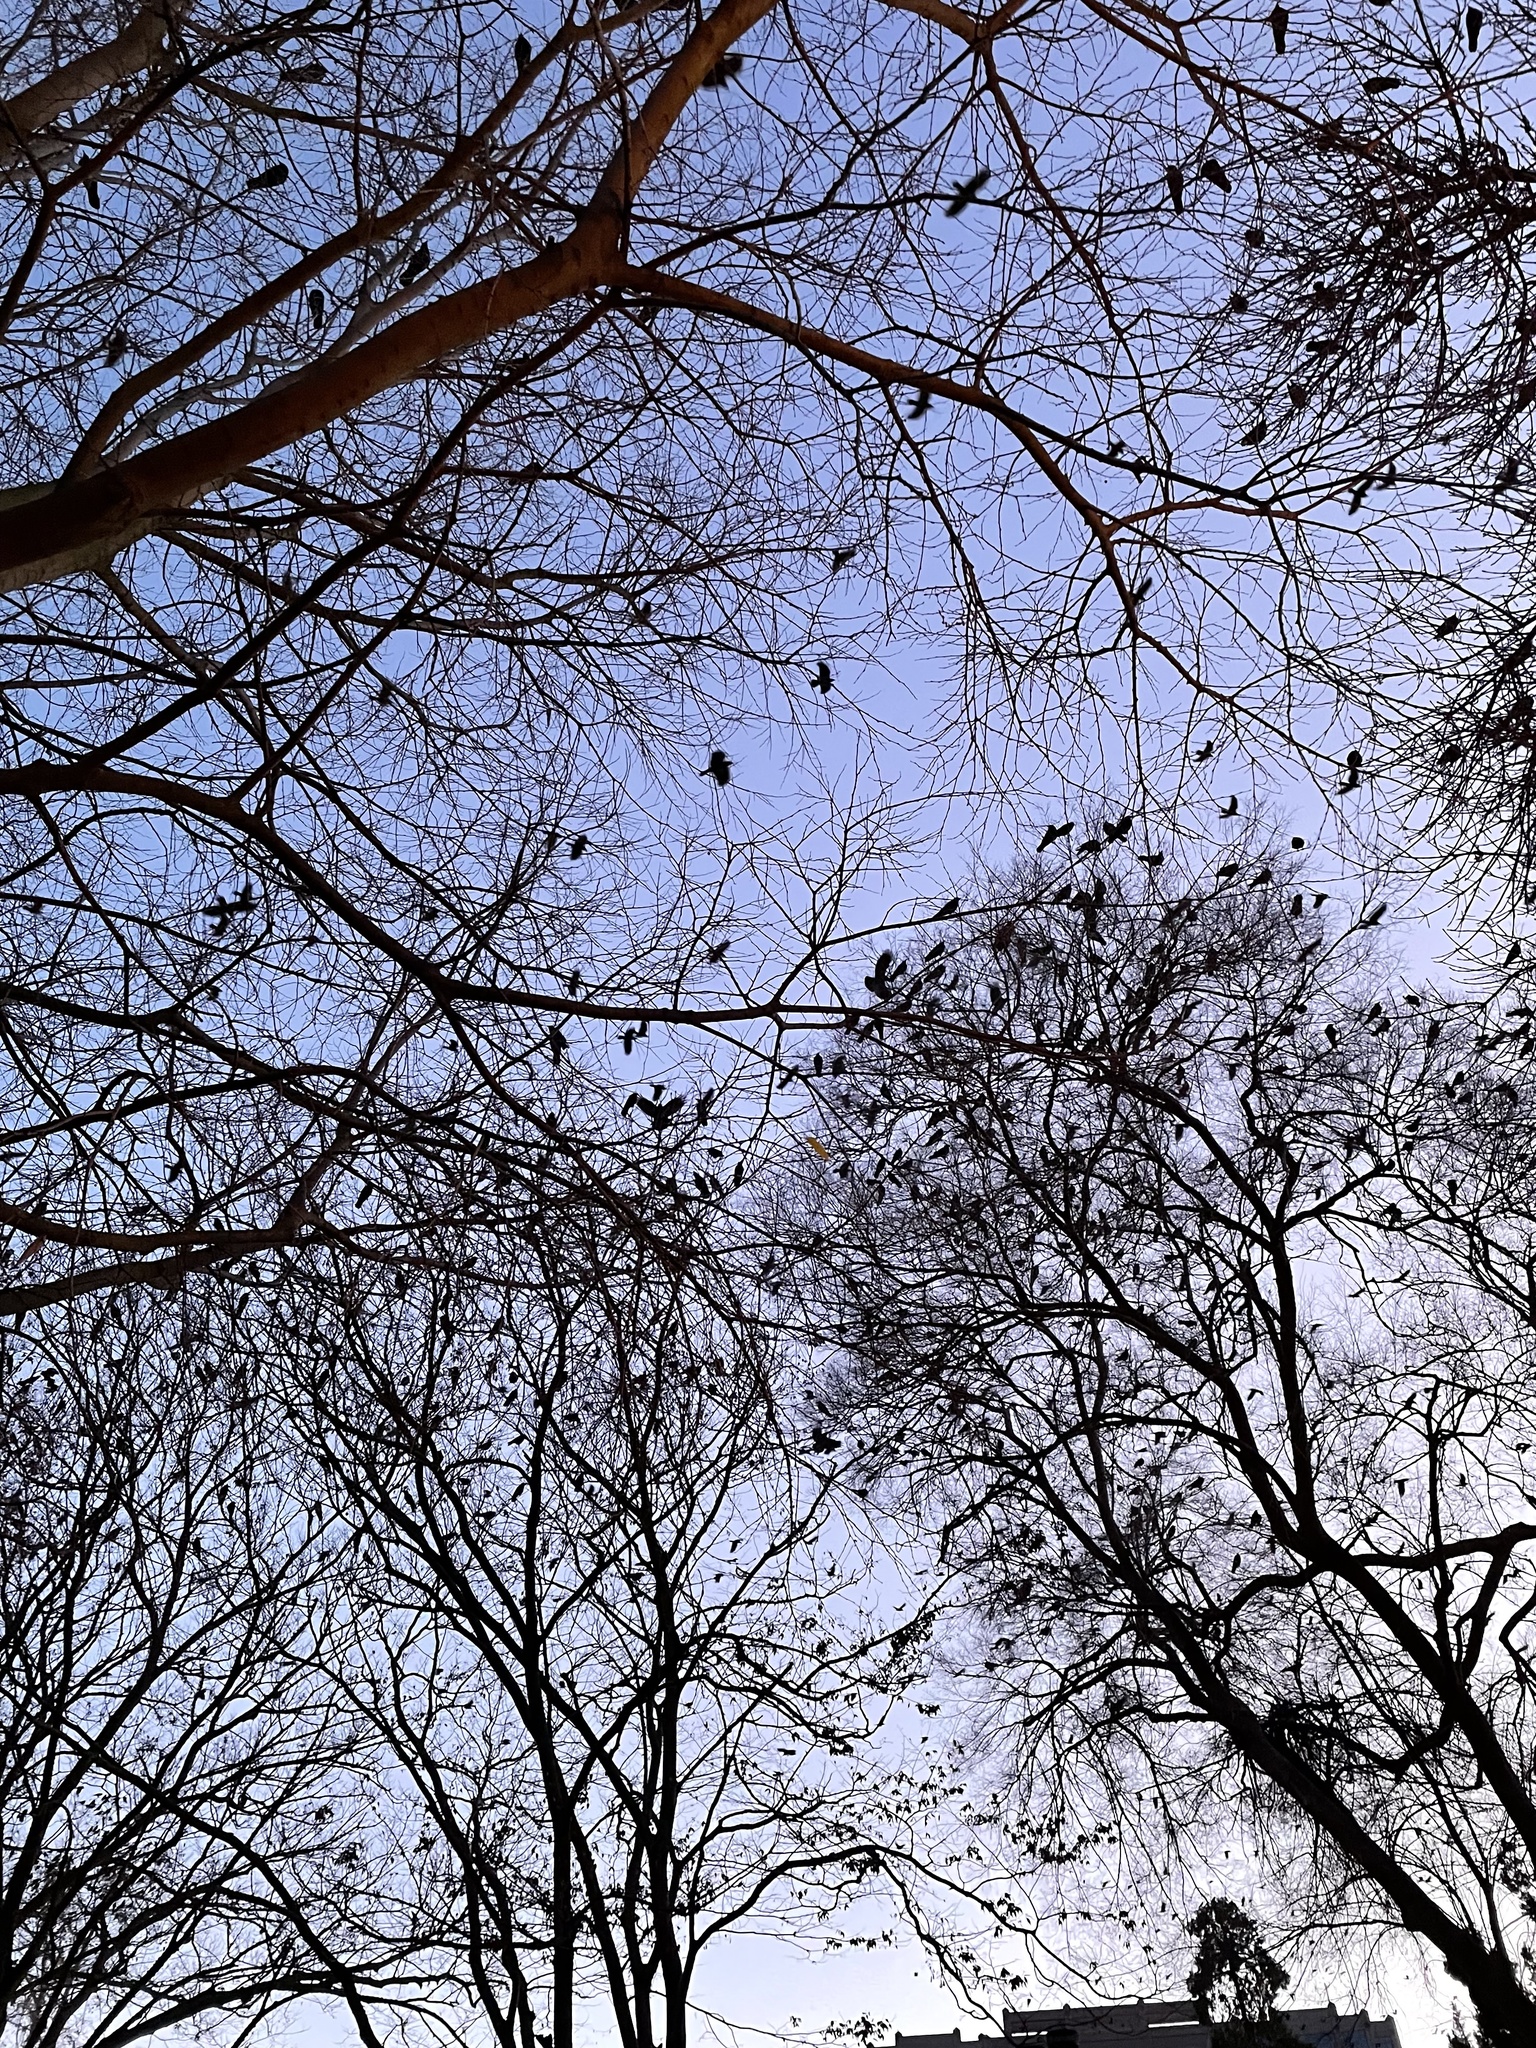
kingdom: Animalia
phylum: Chordata
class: Aves
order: Passeriformes
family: Corvidae
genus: Corvus
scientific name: Corvus brachyrhynchos
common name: American crow
